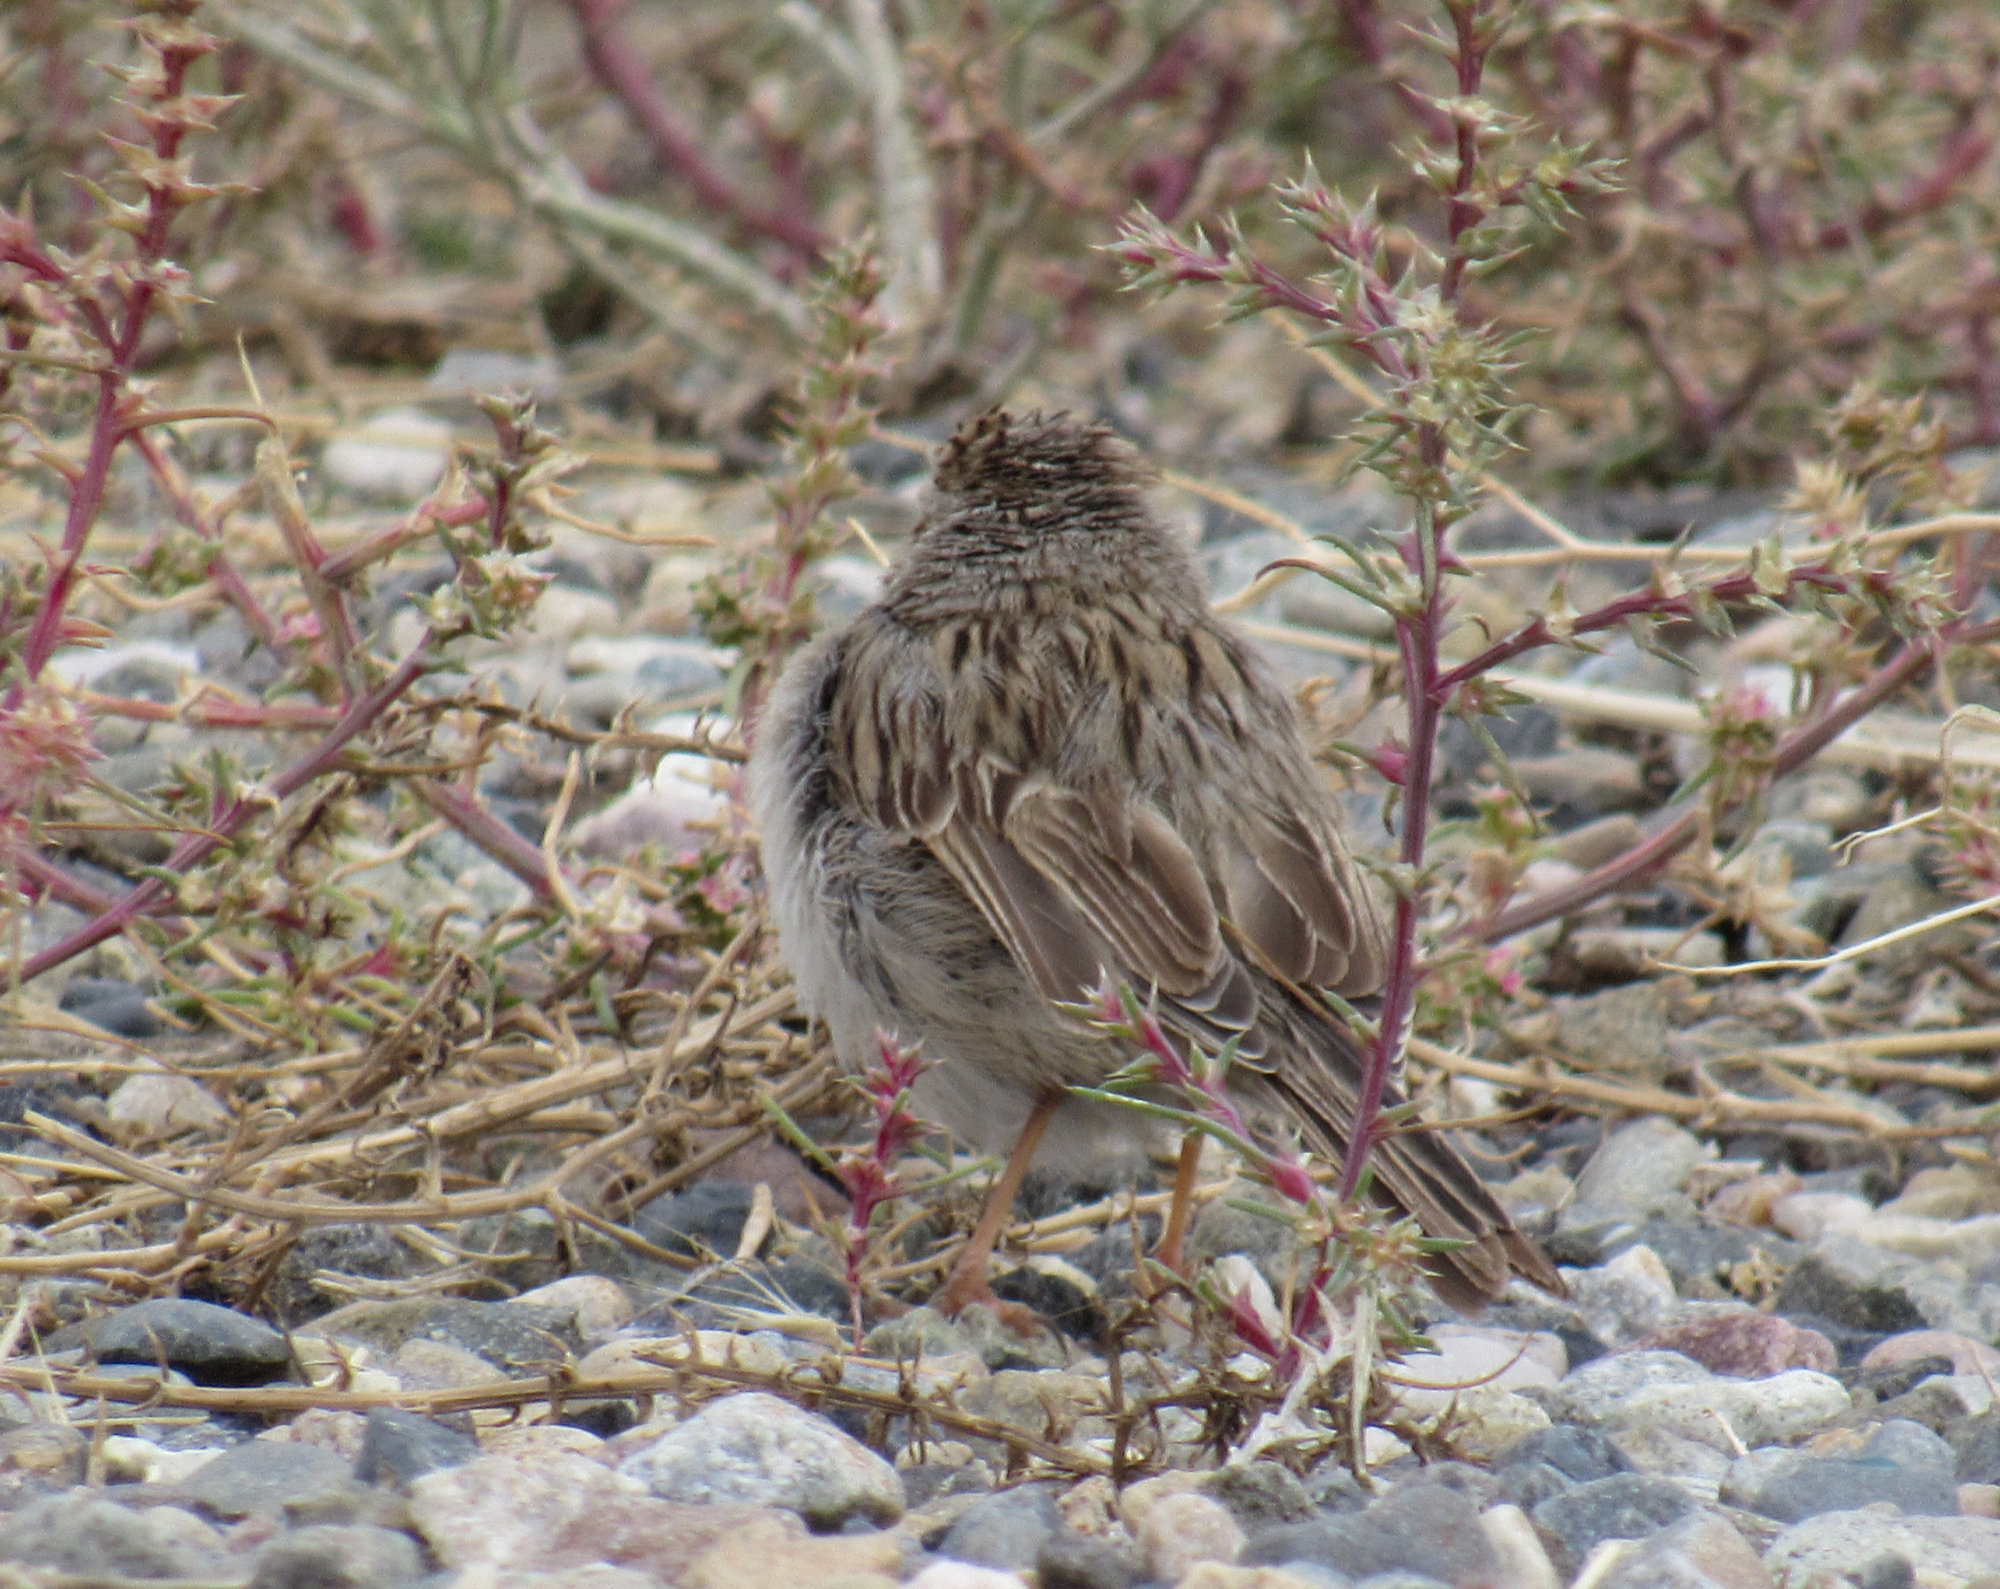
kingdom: Animalia
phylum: Chordata
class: Aves
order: Passeriformes
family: Passerellidae
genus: Spizella
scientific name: Spizella breweri
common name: Brewer's sparrow
